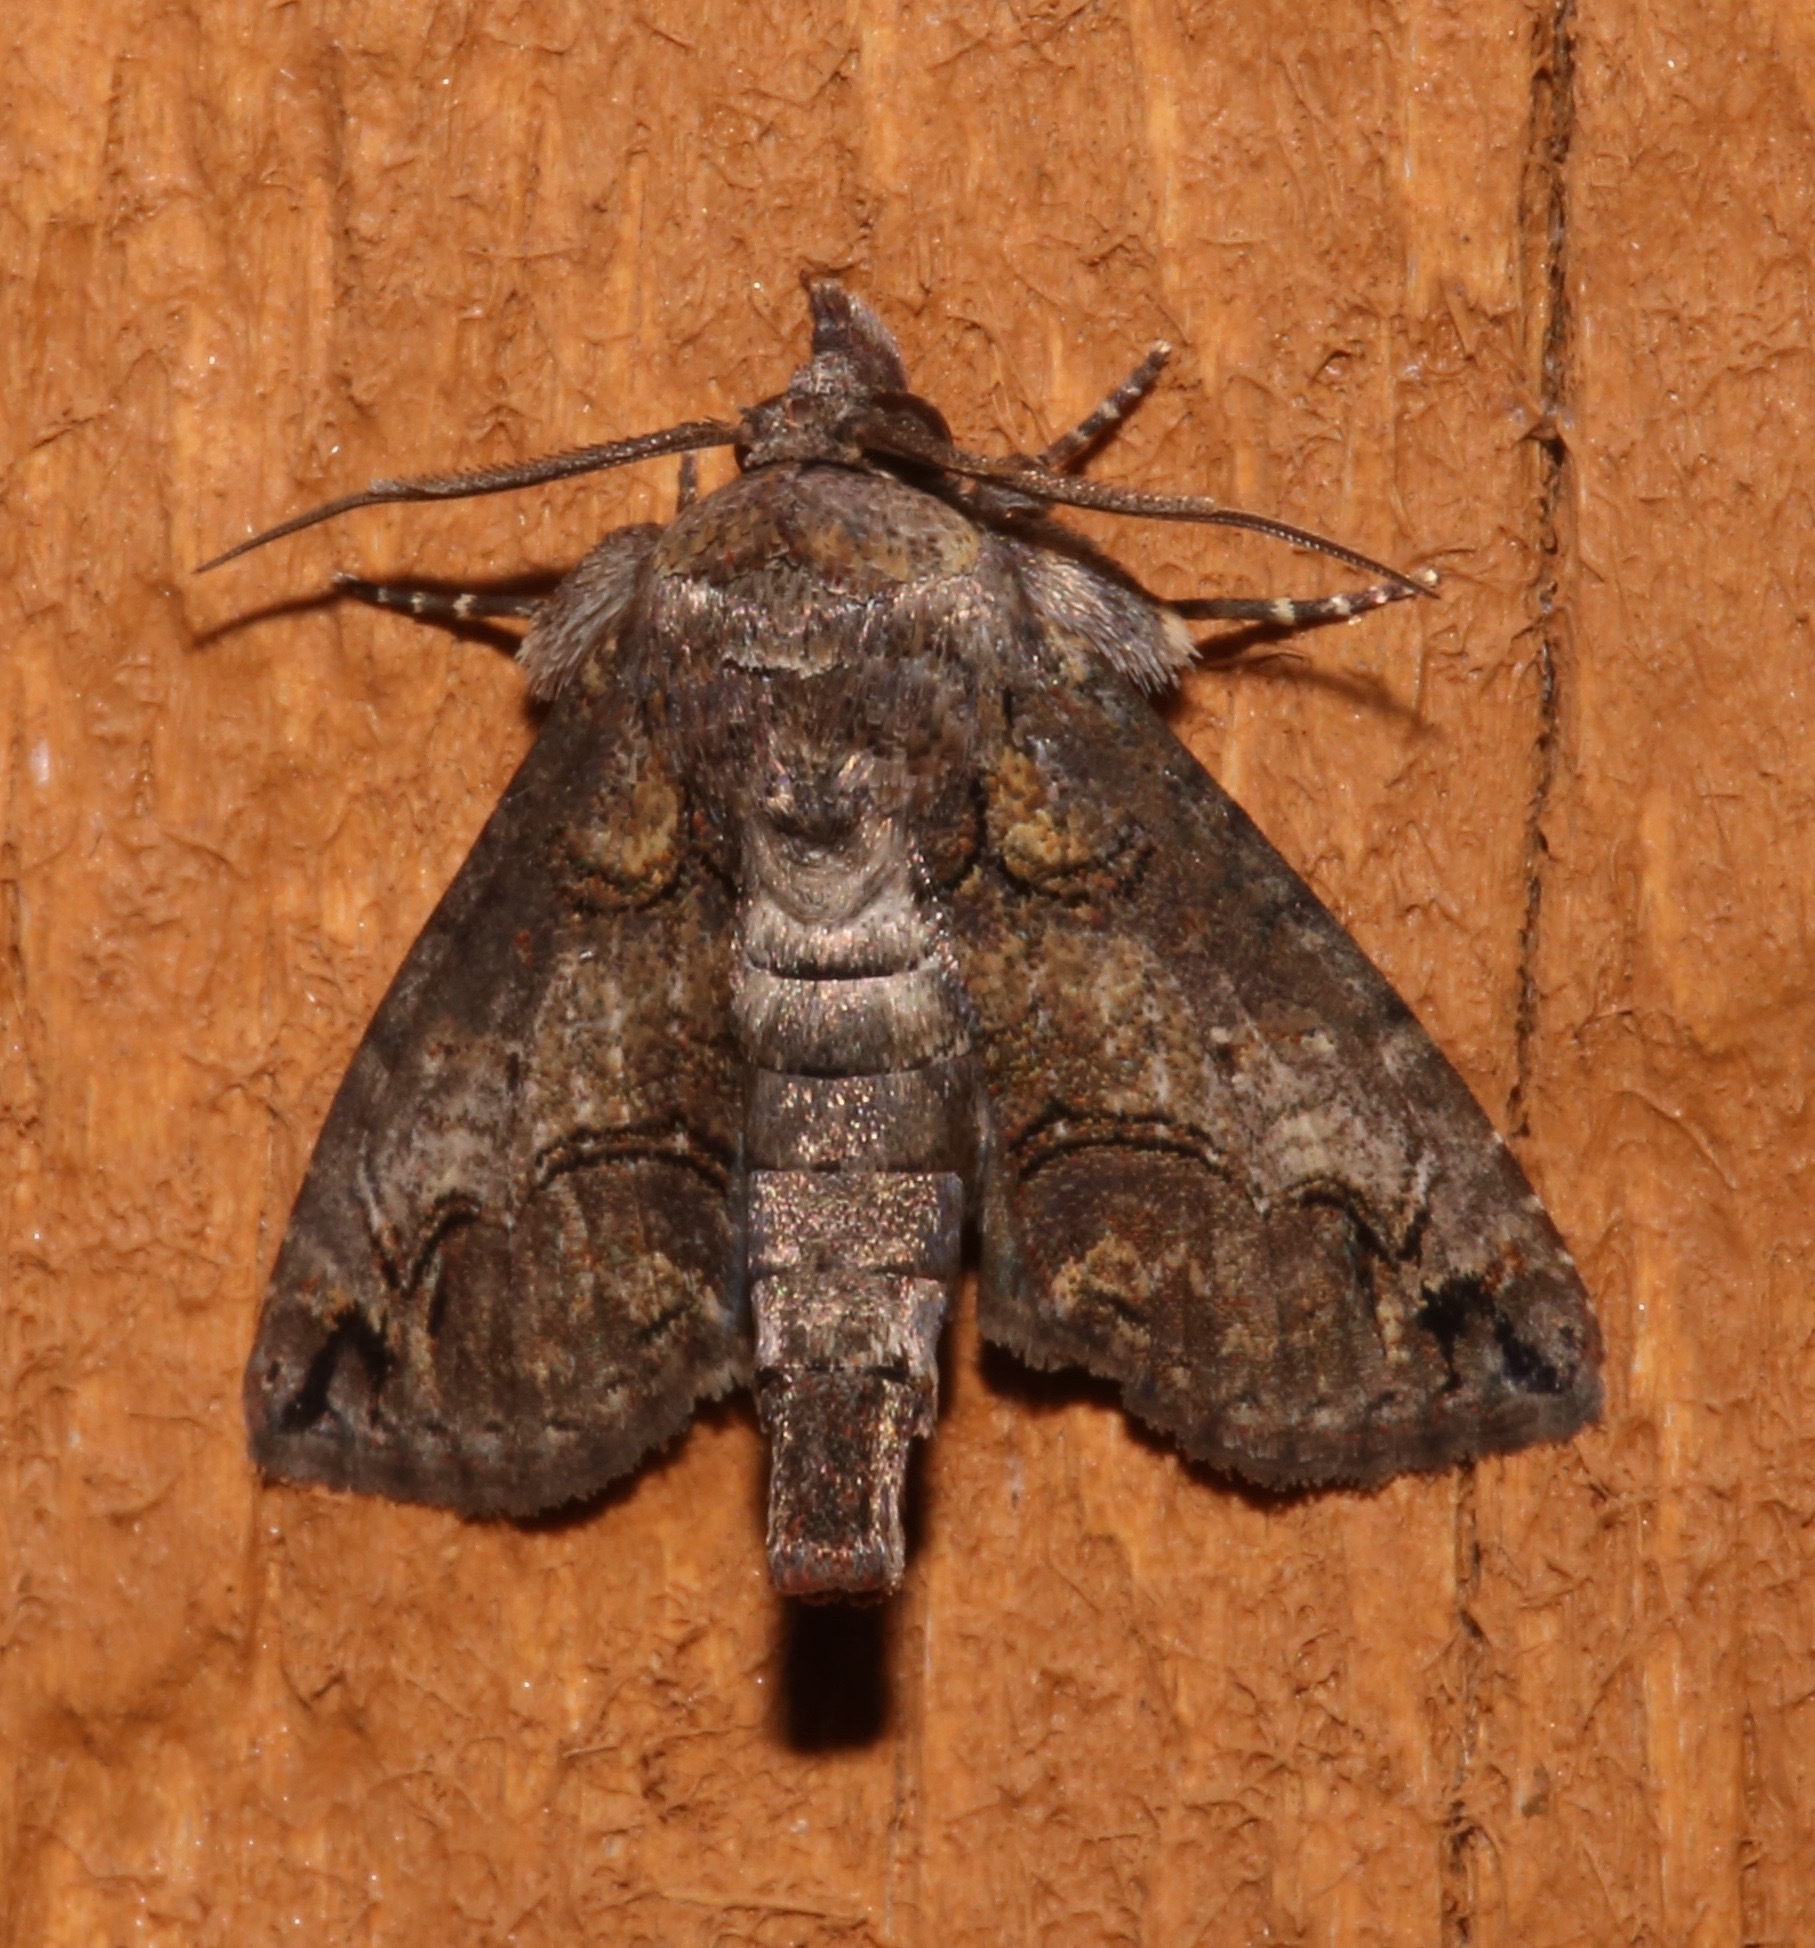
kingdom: Animalia
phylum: Arthropoda
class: Insecta
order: Lepidoptera
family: Euteliidae
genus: Paectes
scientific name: Paectes abrostoloides
